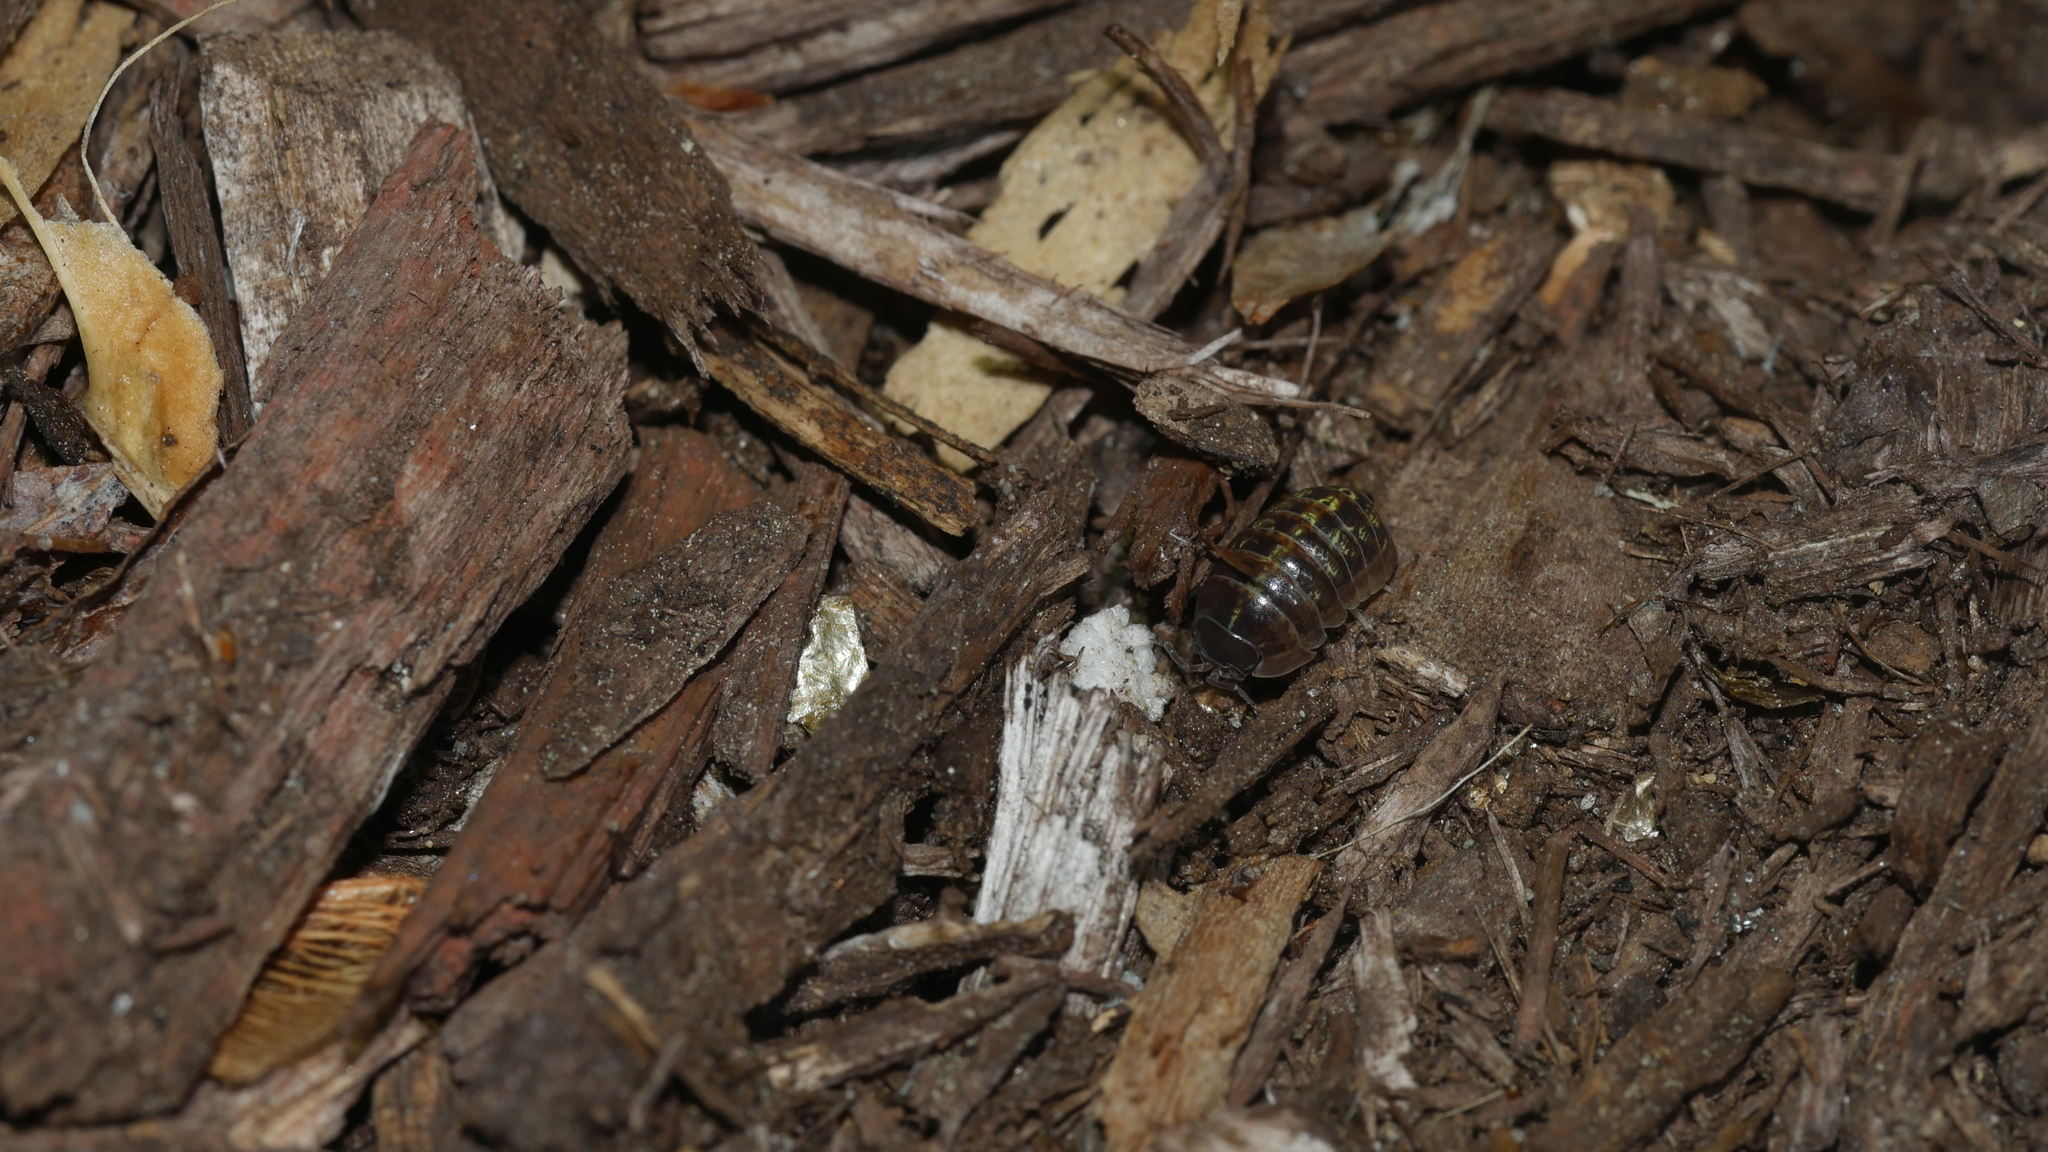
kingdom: Animalia
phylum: Arthropoda
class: Malacostraca
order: Isopoda
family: Armadillidiidae
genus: Armadillidium
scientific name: Armadillidium vulgare
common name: Common pill woodlouse
